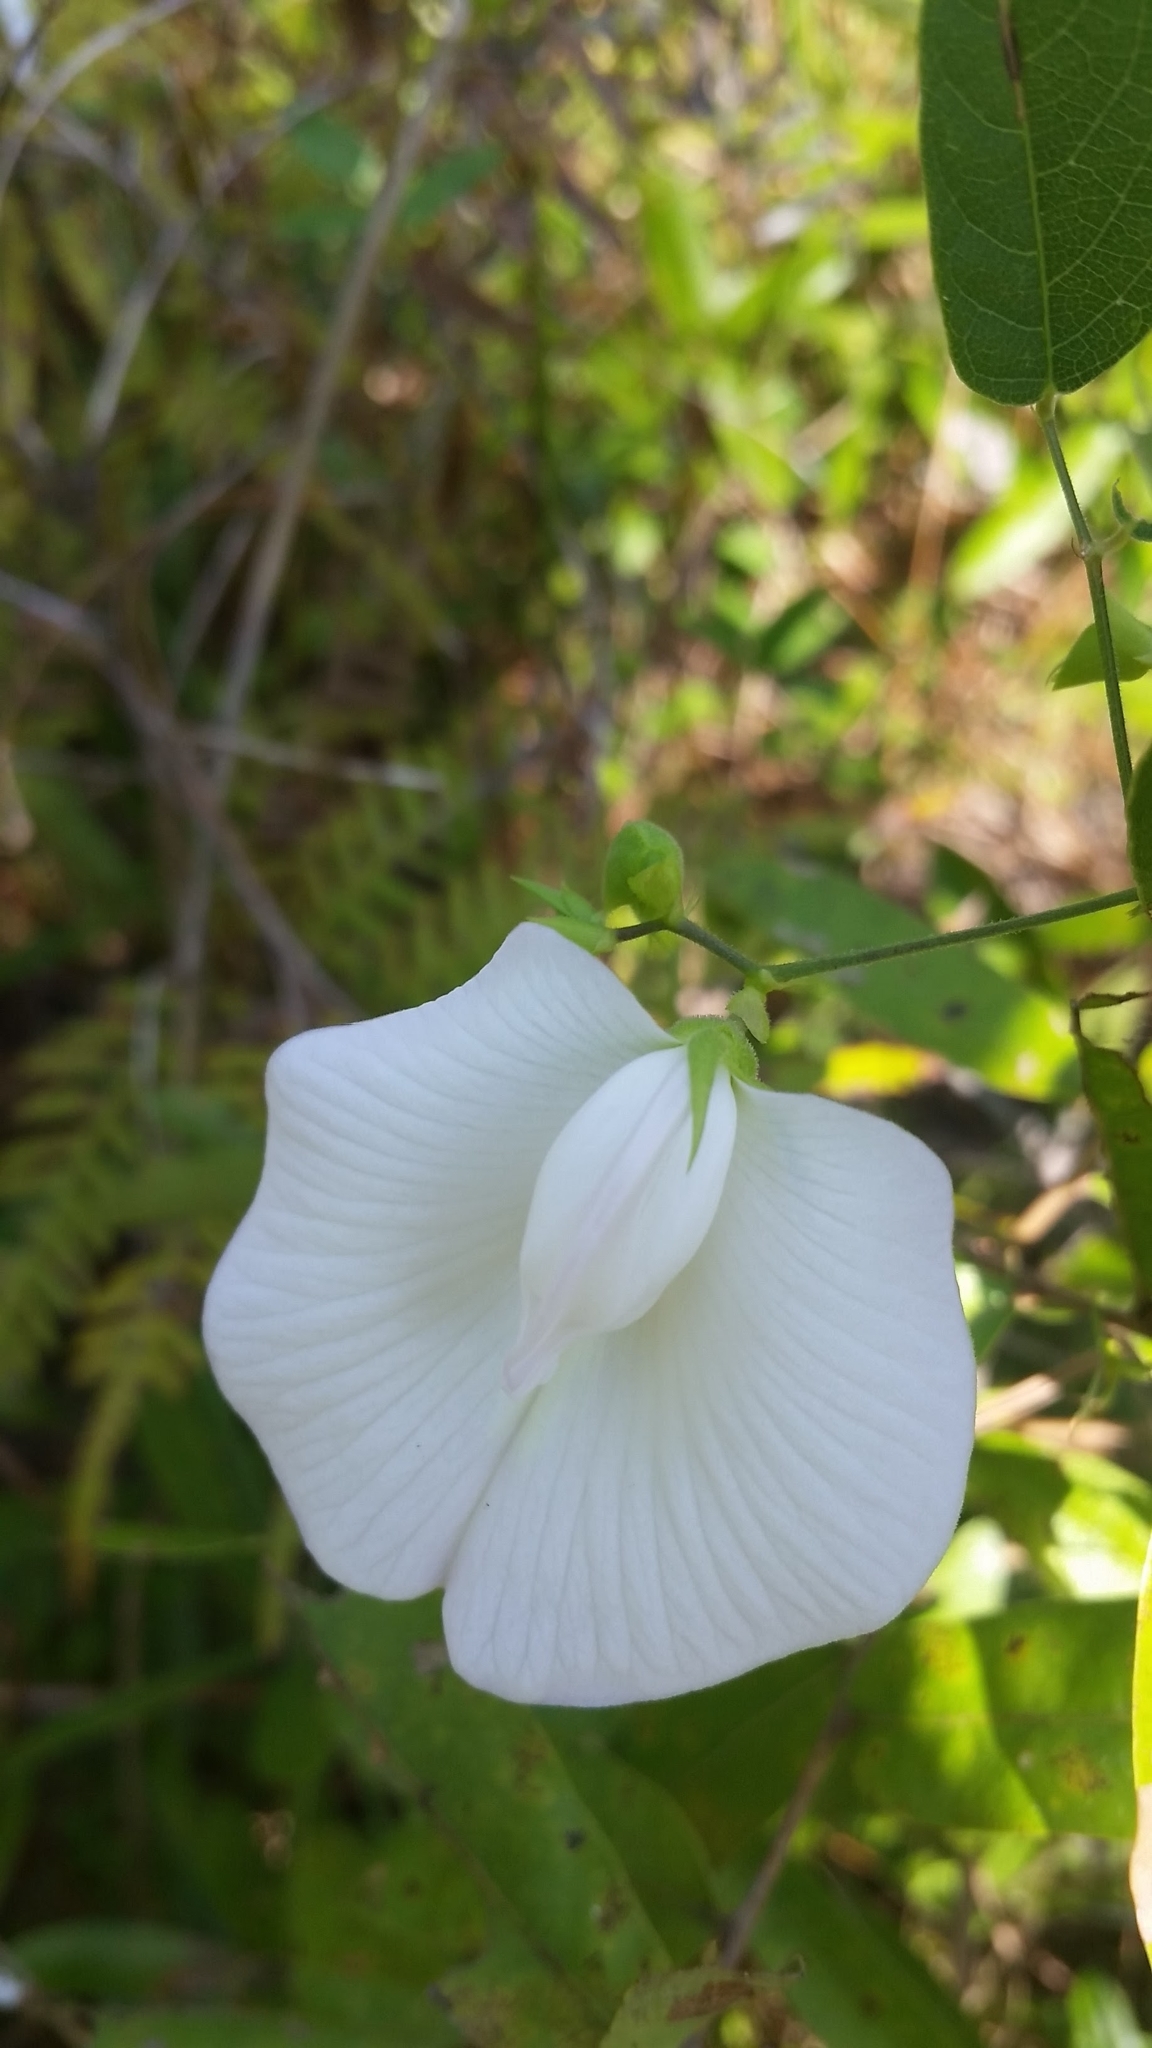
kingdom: Plantae
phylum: Tracheophyta
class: Magnoliopsida
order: Fabales
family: Fabaceae
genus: Centrosema
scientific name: Centrosema virginianum
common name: Butterfly-pea
